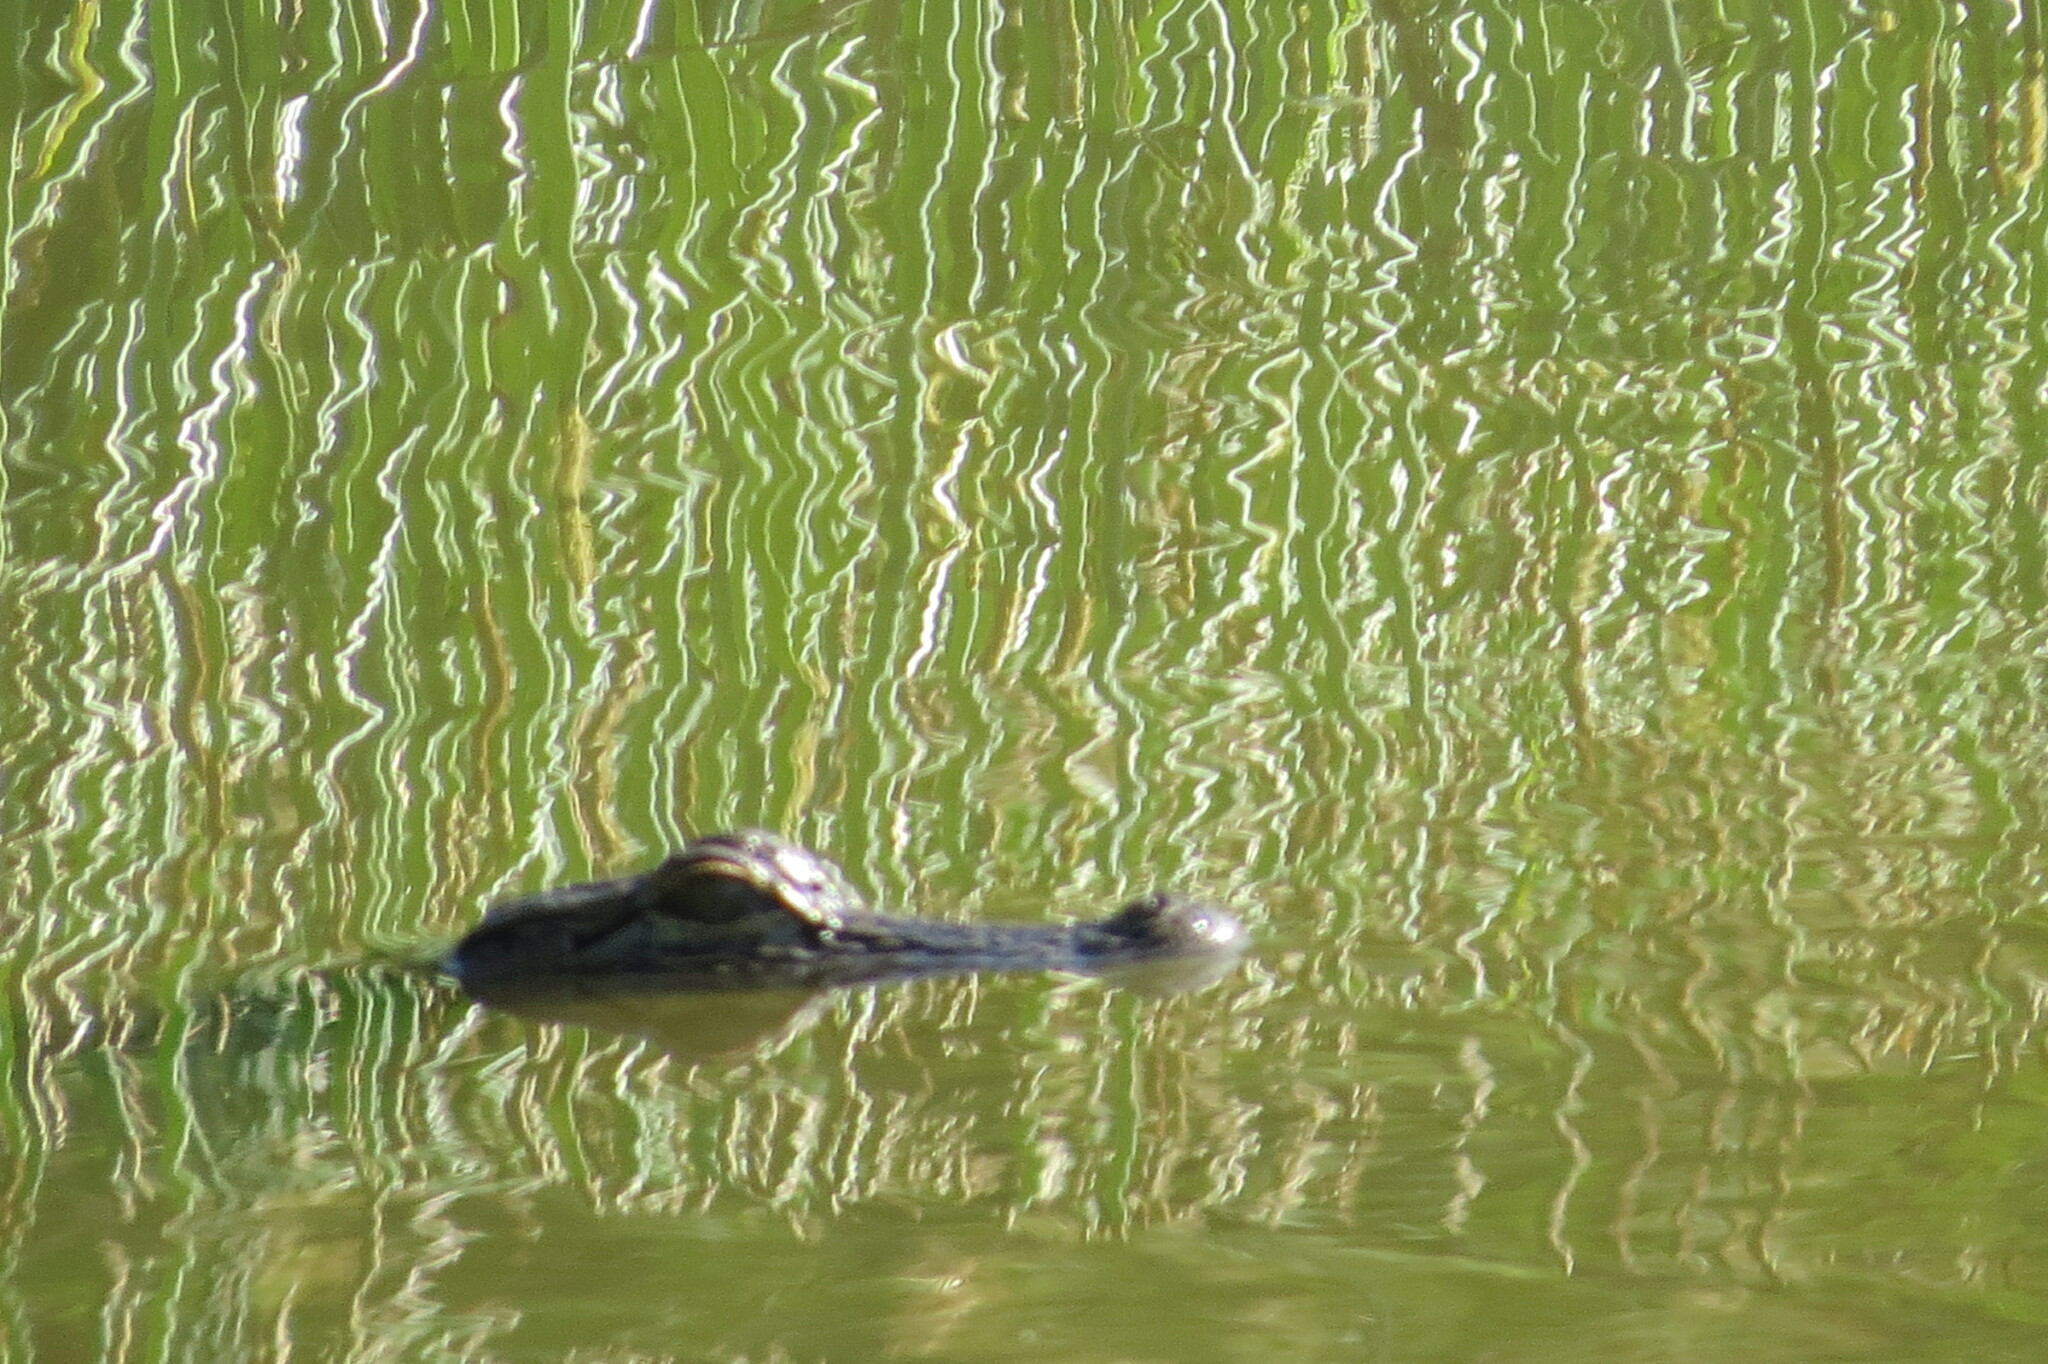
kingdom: Animalia
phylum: Chordata
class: Crocodylia
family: Alligatoridae
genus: Alligator
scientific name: Alligator mississippiensis
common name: American alligator
